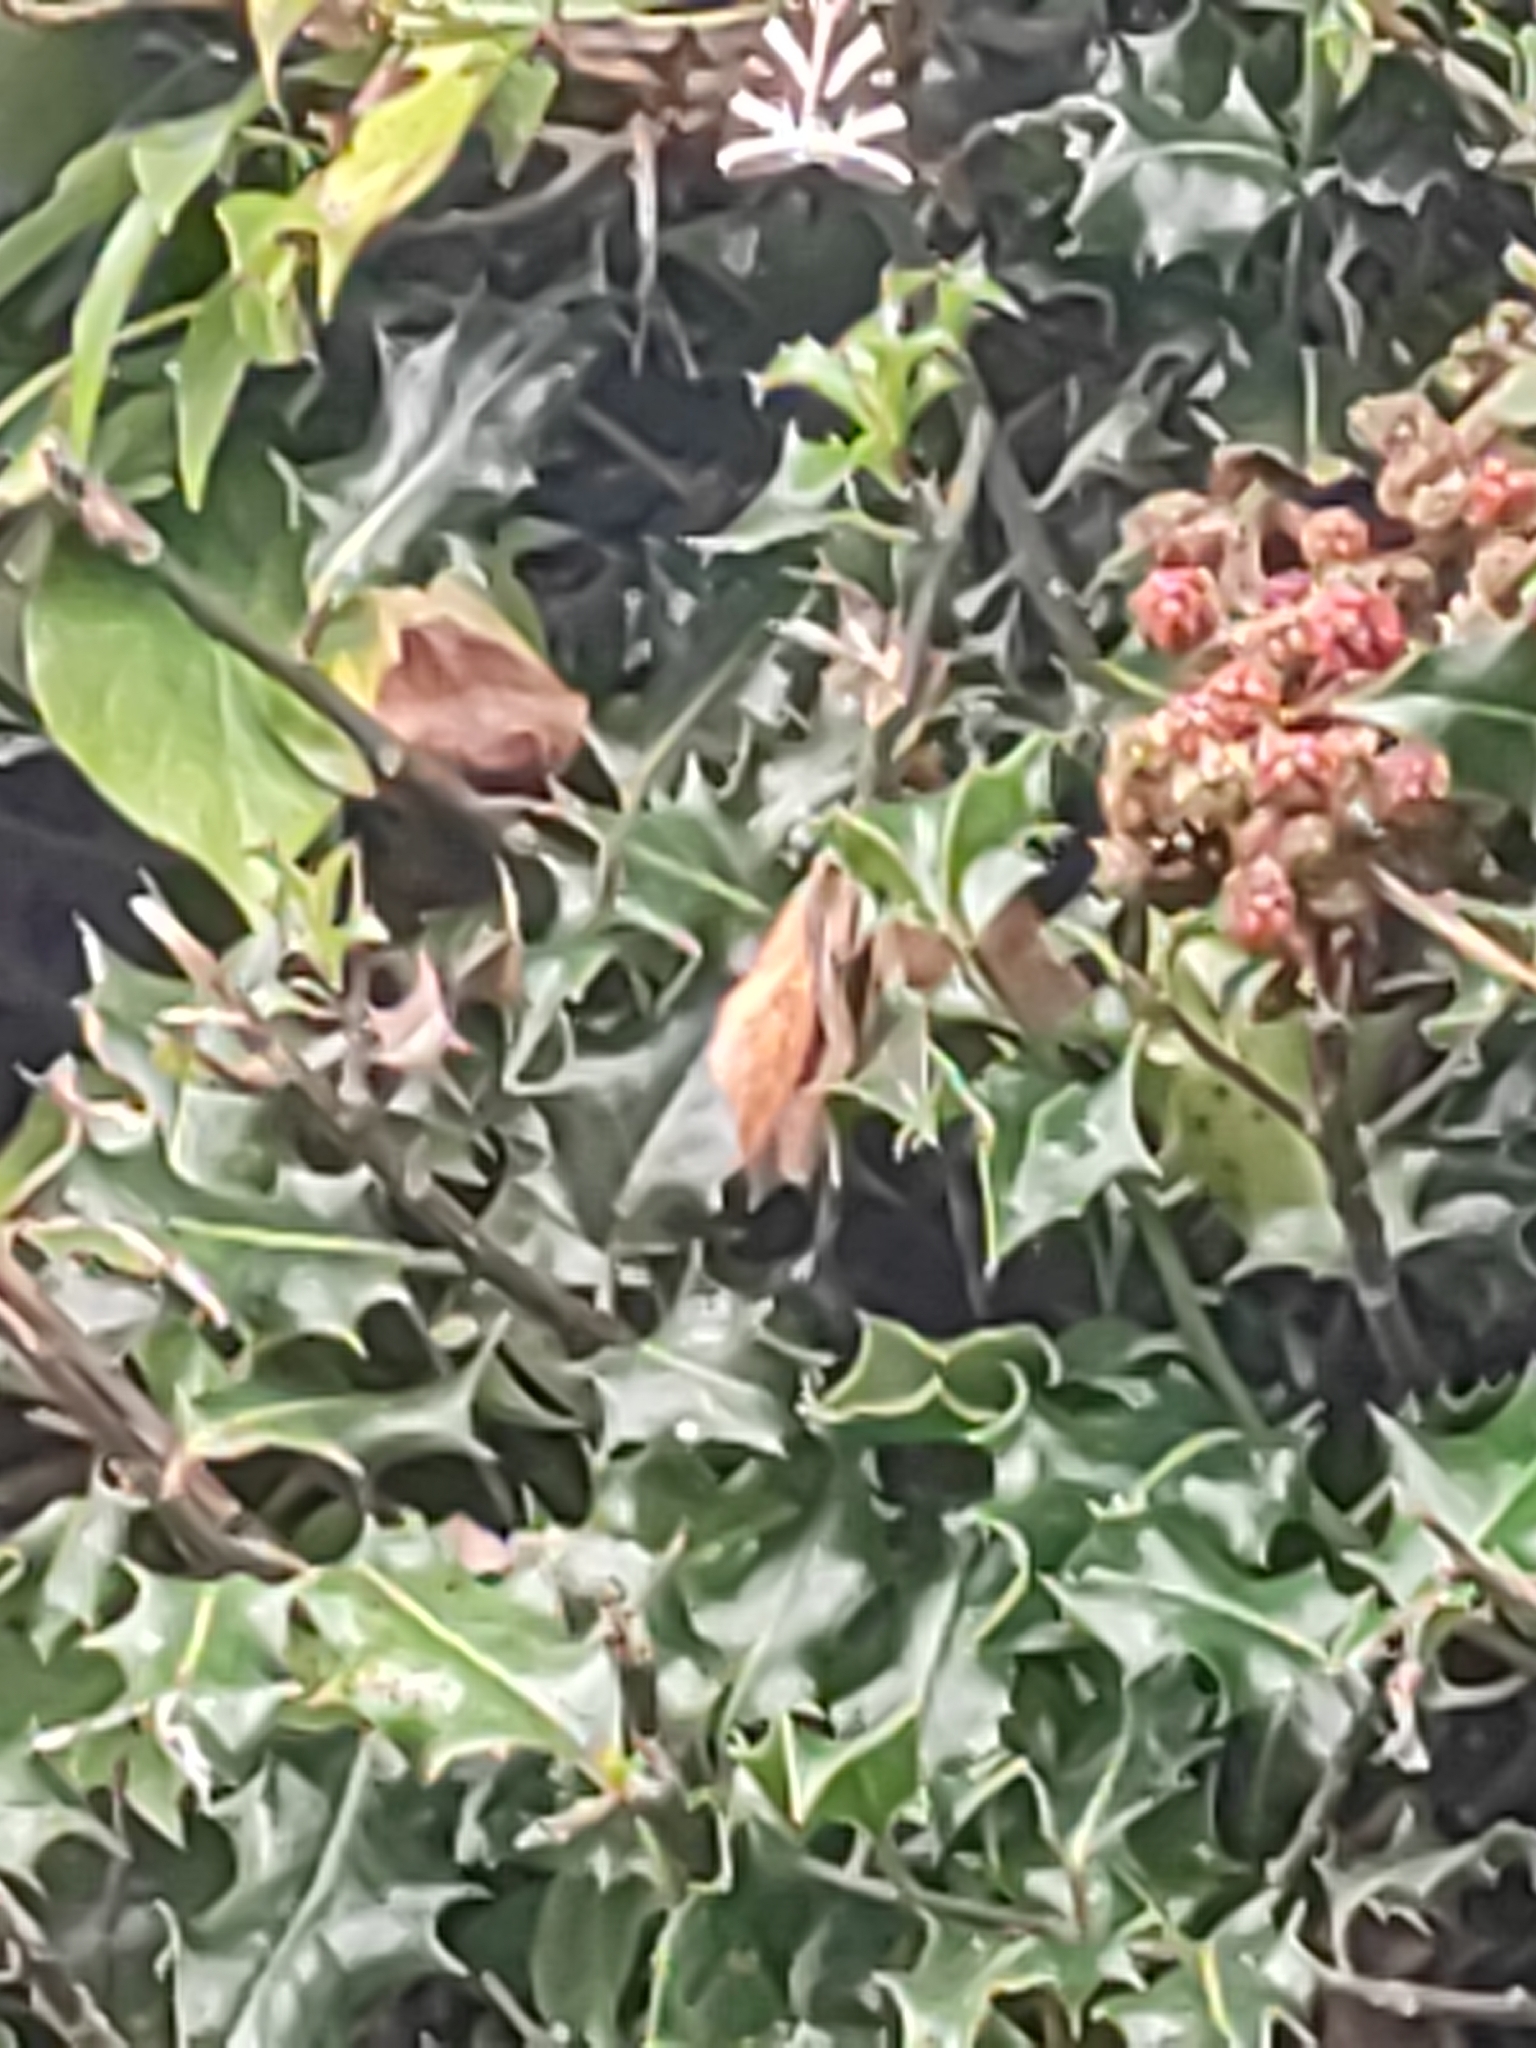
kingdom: Plantae
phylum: Tracheophyta
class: Magnoliopsida
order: Aquifoliales
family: Aquifoliaceae
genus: Ilex
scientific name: Ilex aquifolium
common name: English holly
